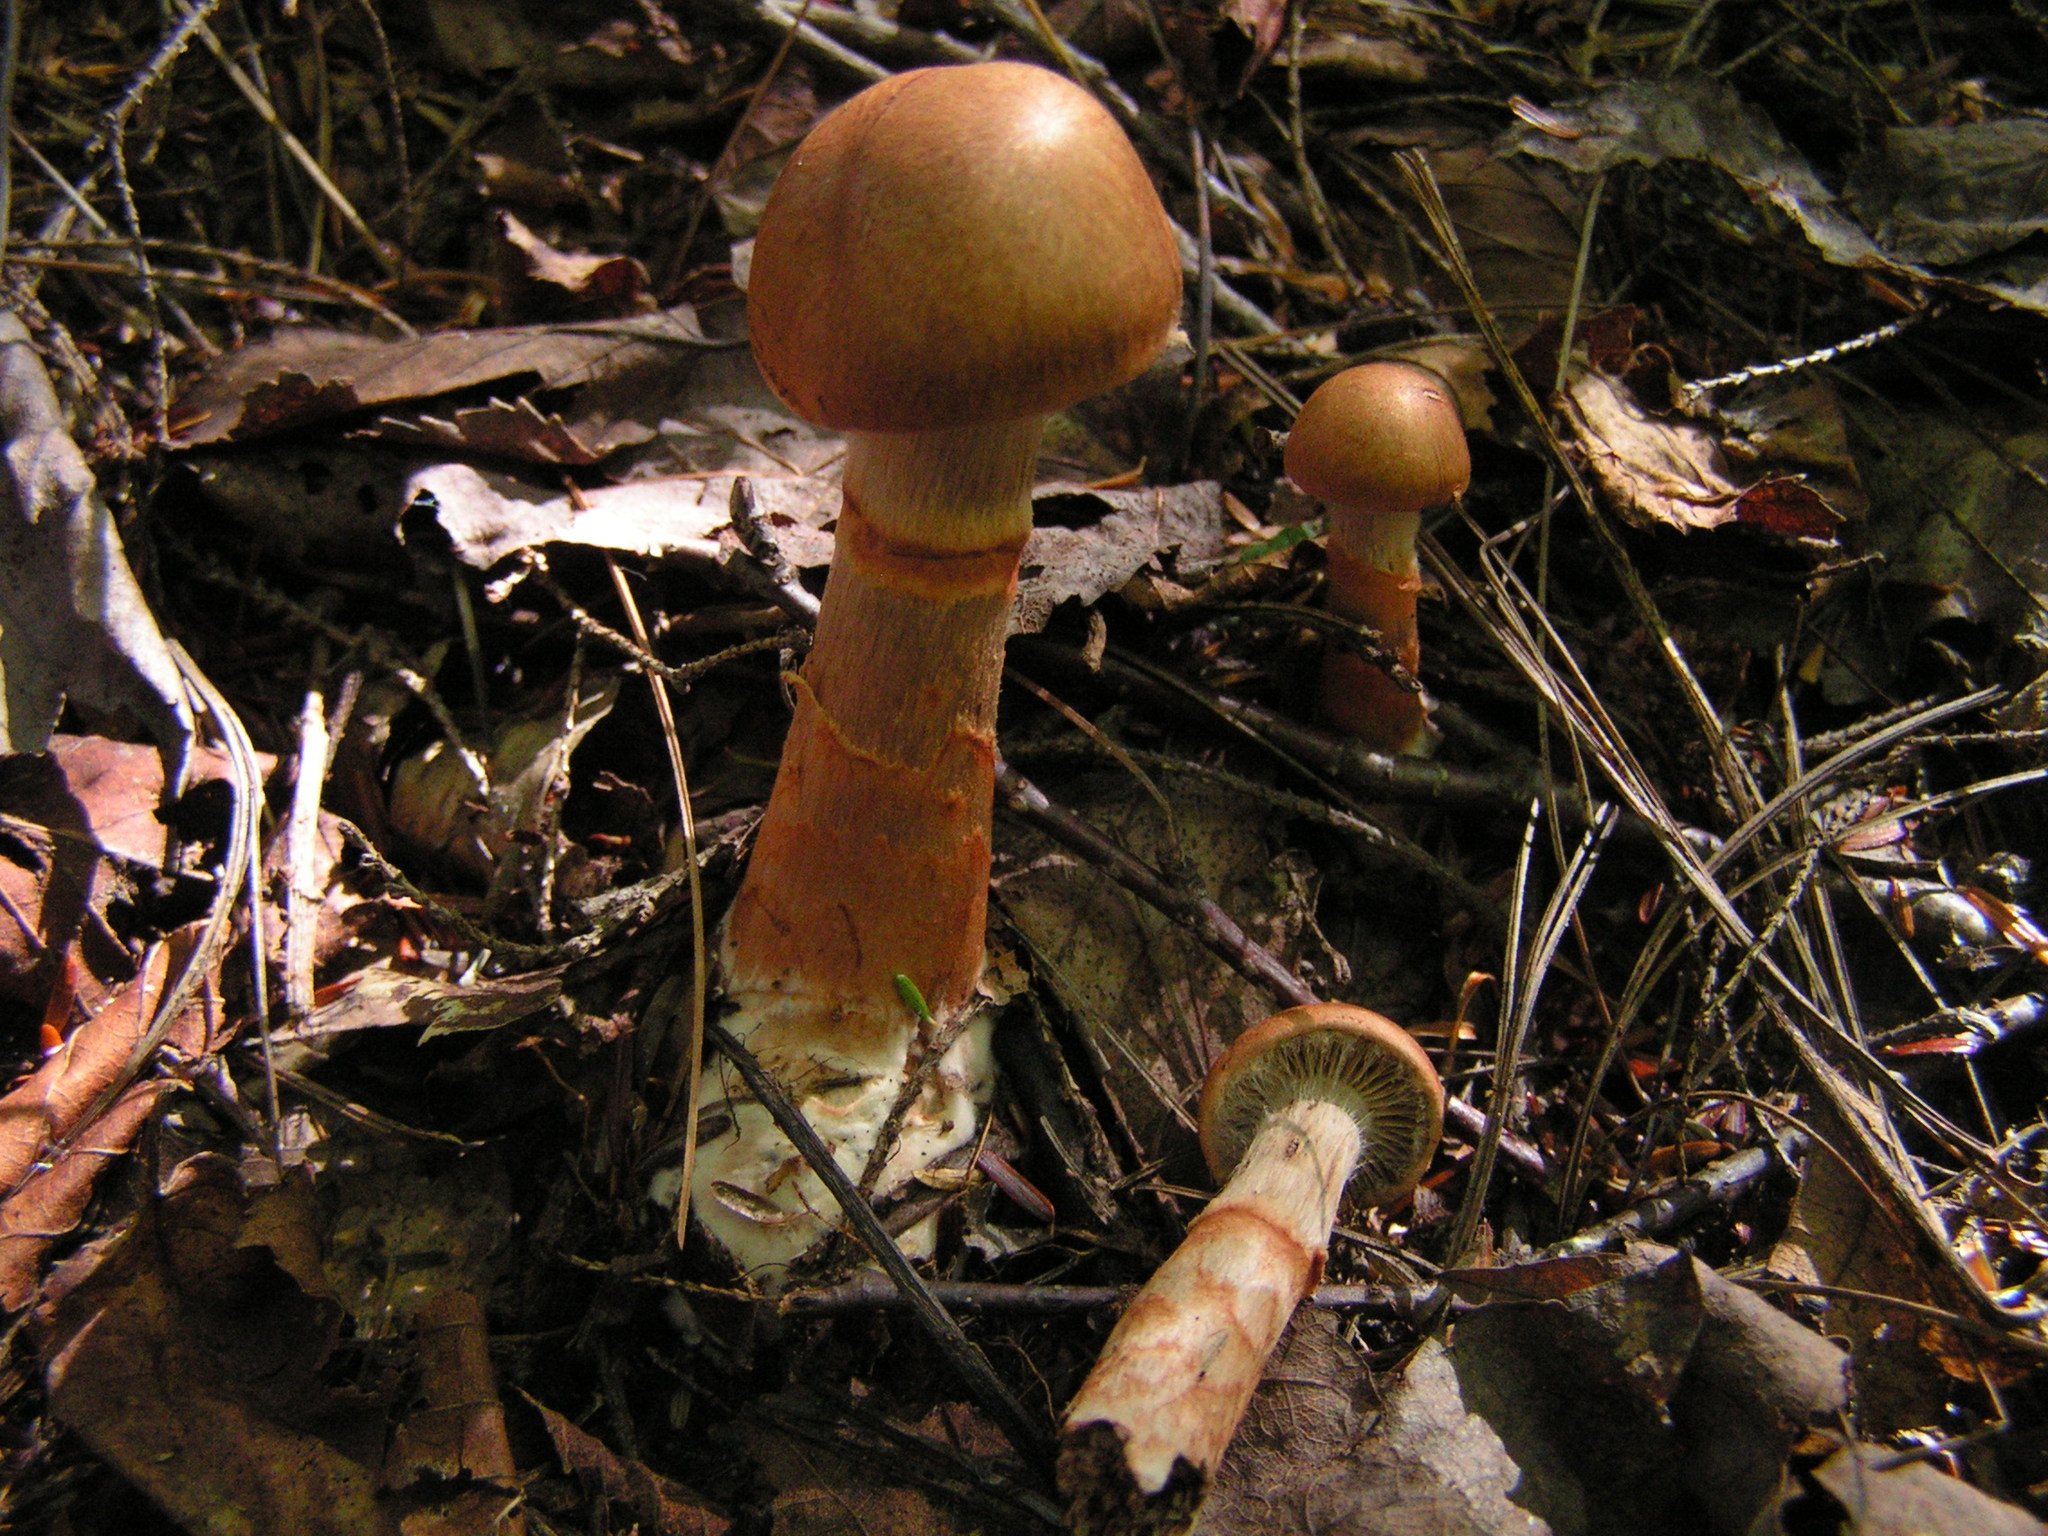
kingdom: Fungi
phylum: Basidiomycota
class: Agaricomycetes
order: Agaricales
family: Cortinariaceae
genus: Cortinarius
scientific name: Cortinarius armillatus
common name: Red banded webcap
